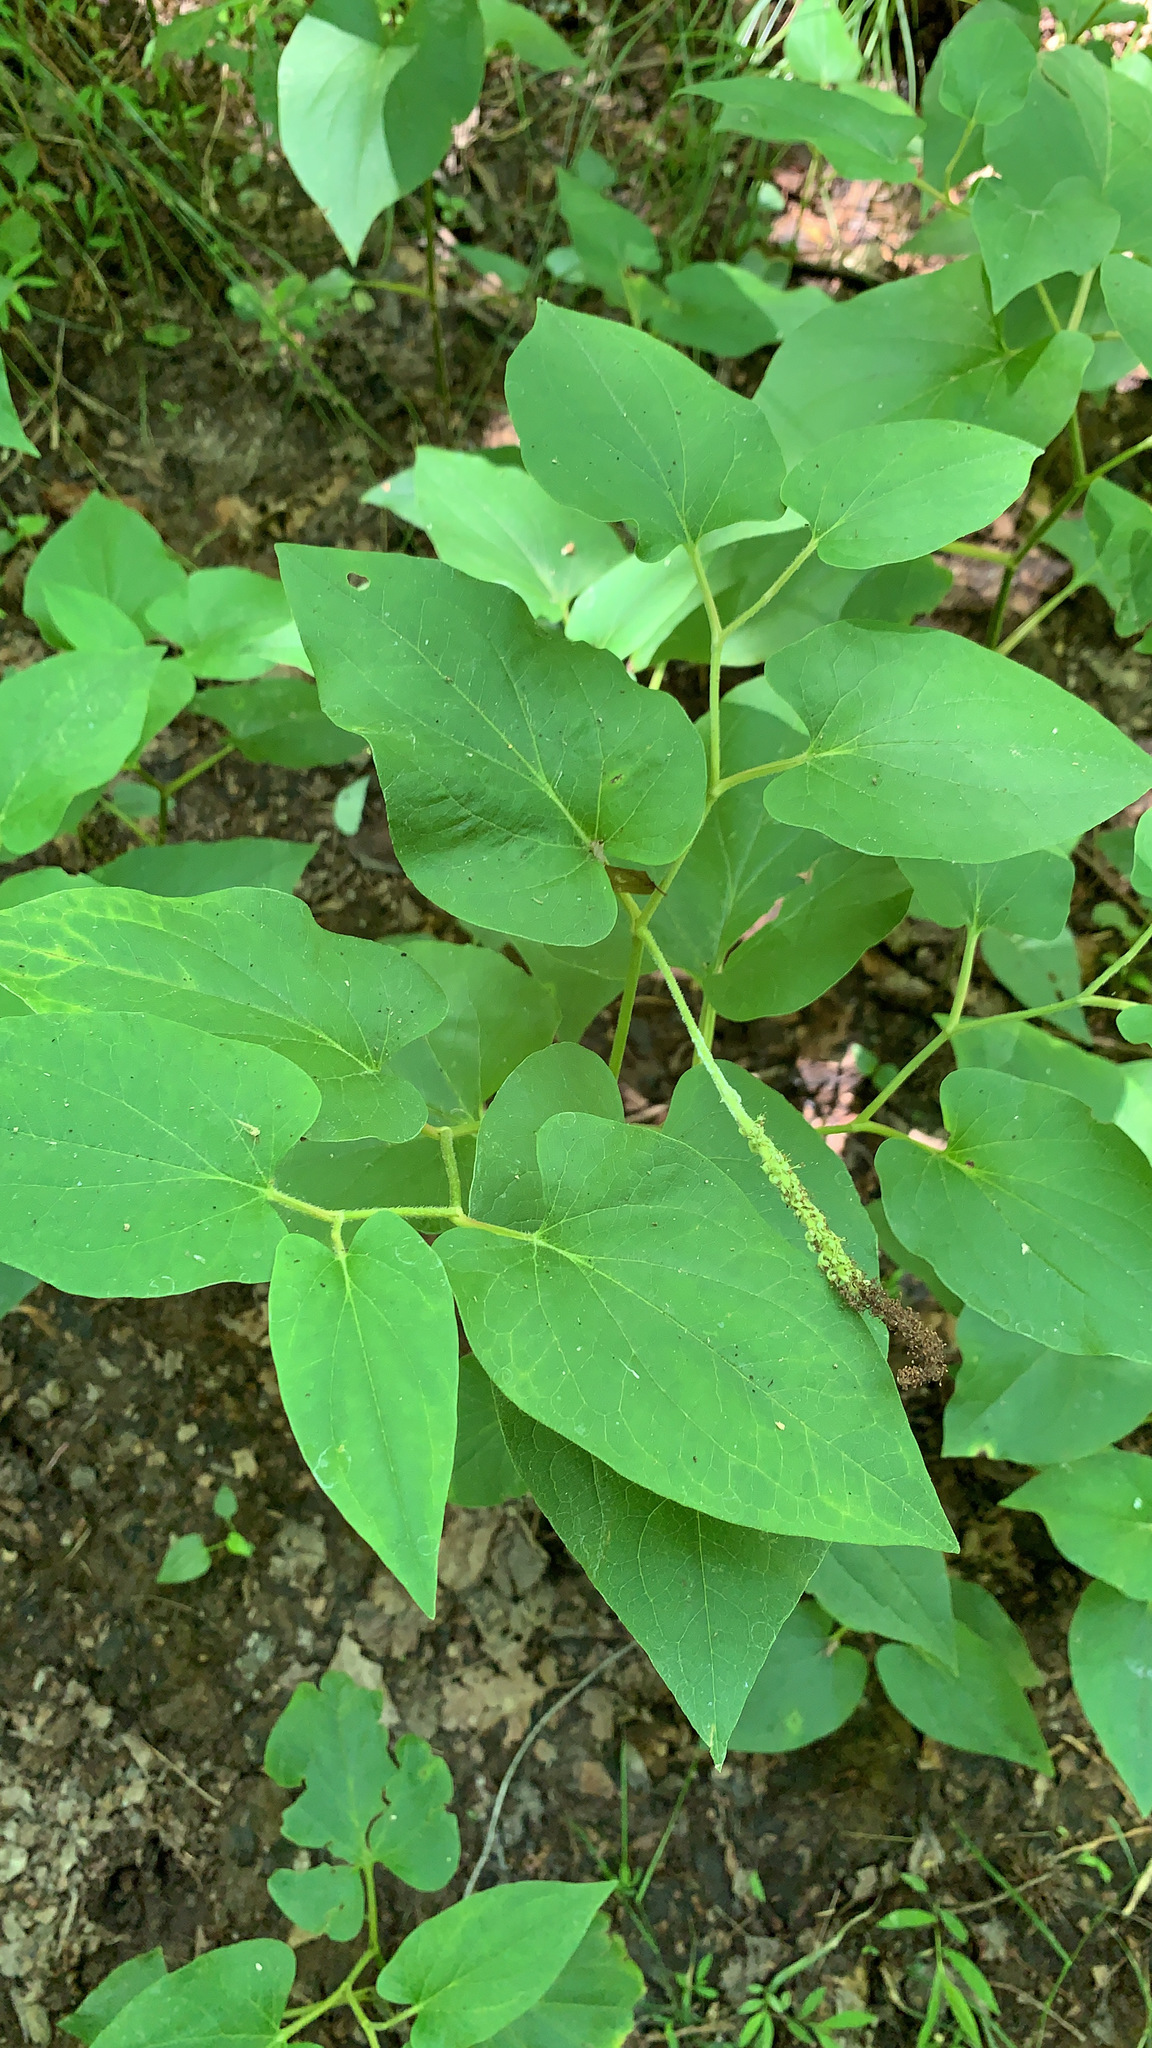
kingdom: Plantae
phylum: Tracheophyta
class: Magnoliopsida
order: Piperales
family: Saururaceae
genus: Saururus
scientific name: Saururus cernuus
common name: Lizard's-tail
